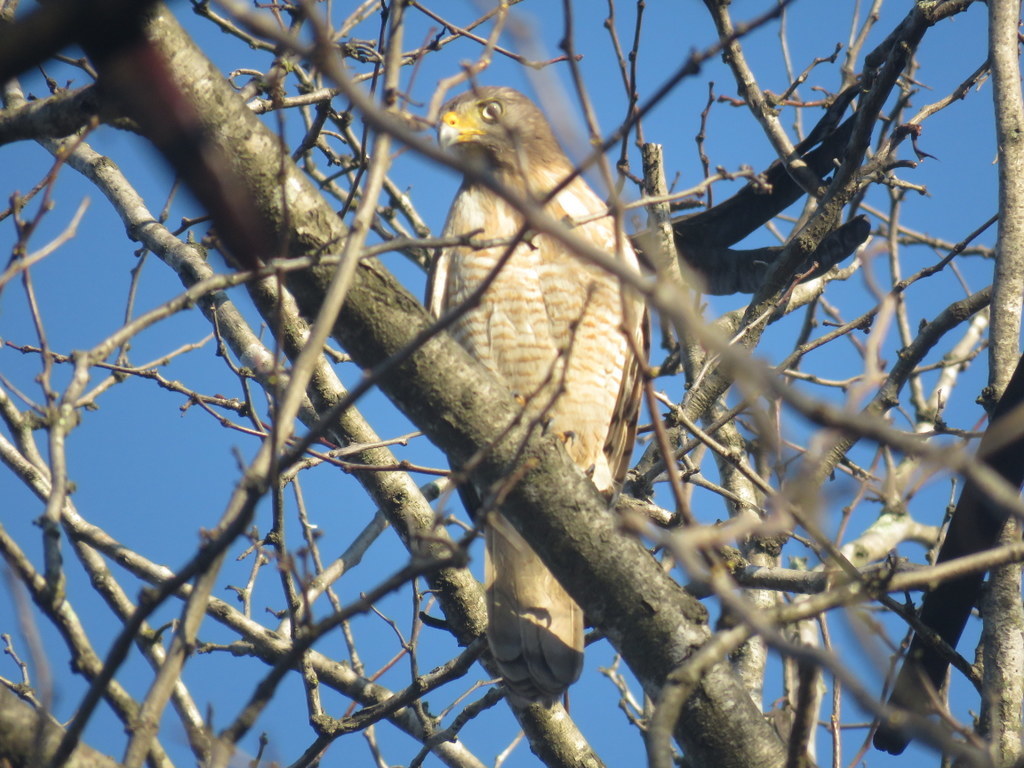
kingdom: Animalia
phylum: Chordata
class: Aves
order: Accipitriformes
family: Accipitridae
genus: Rupornis
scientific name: Rupornis magnirostris
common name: Roadside hawk
